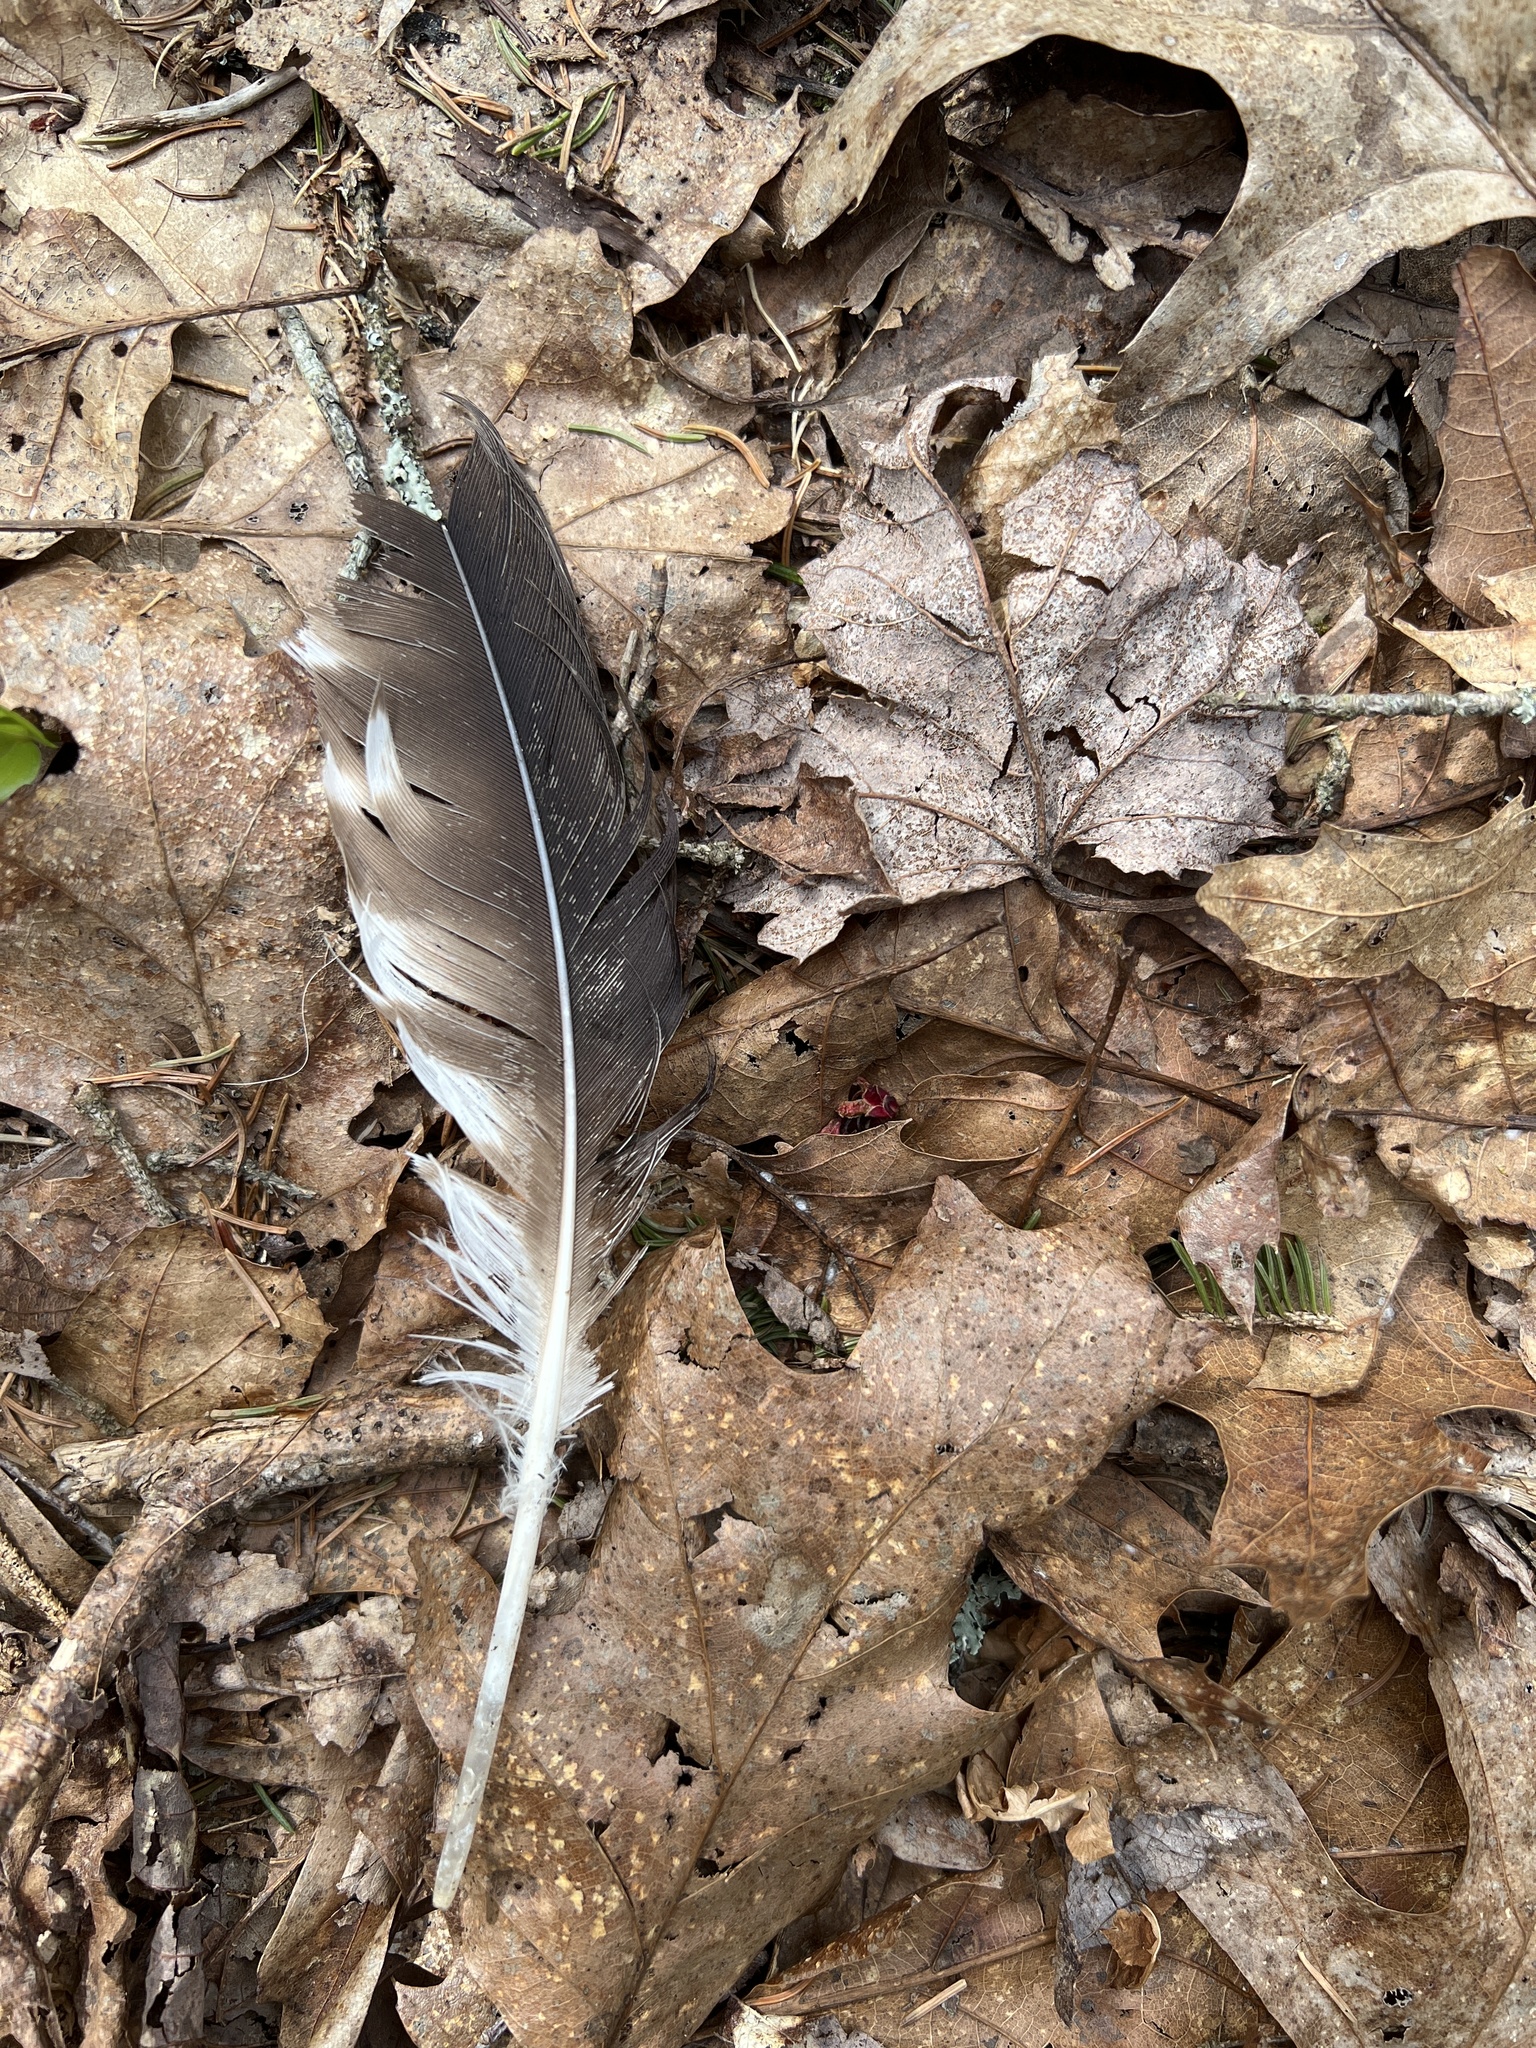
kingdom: Animalia
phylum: Chordata
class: Aves
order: Accipitriformes
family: Pandionidae
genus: Pandion
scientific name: Pandion haliaetus
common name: Osprey
